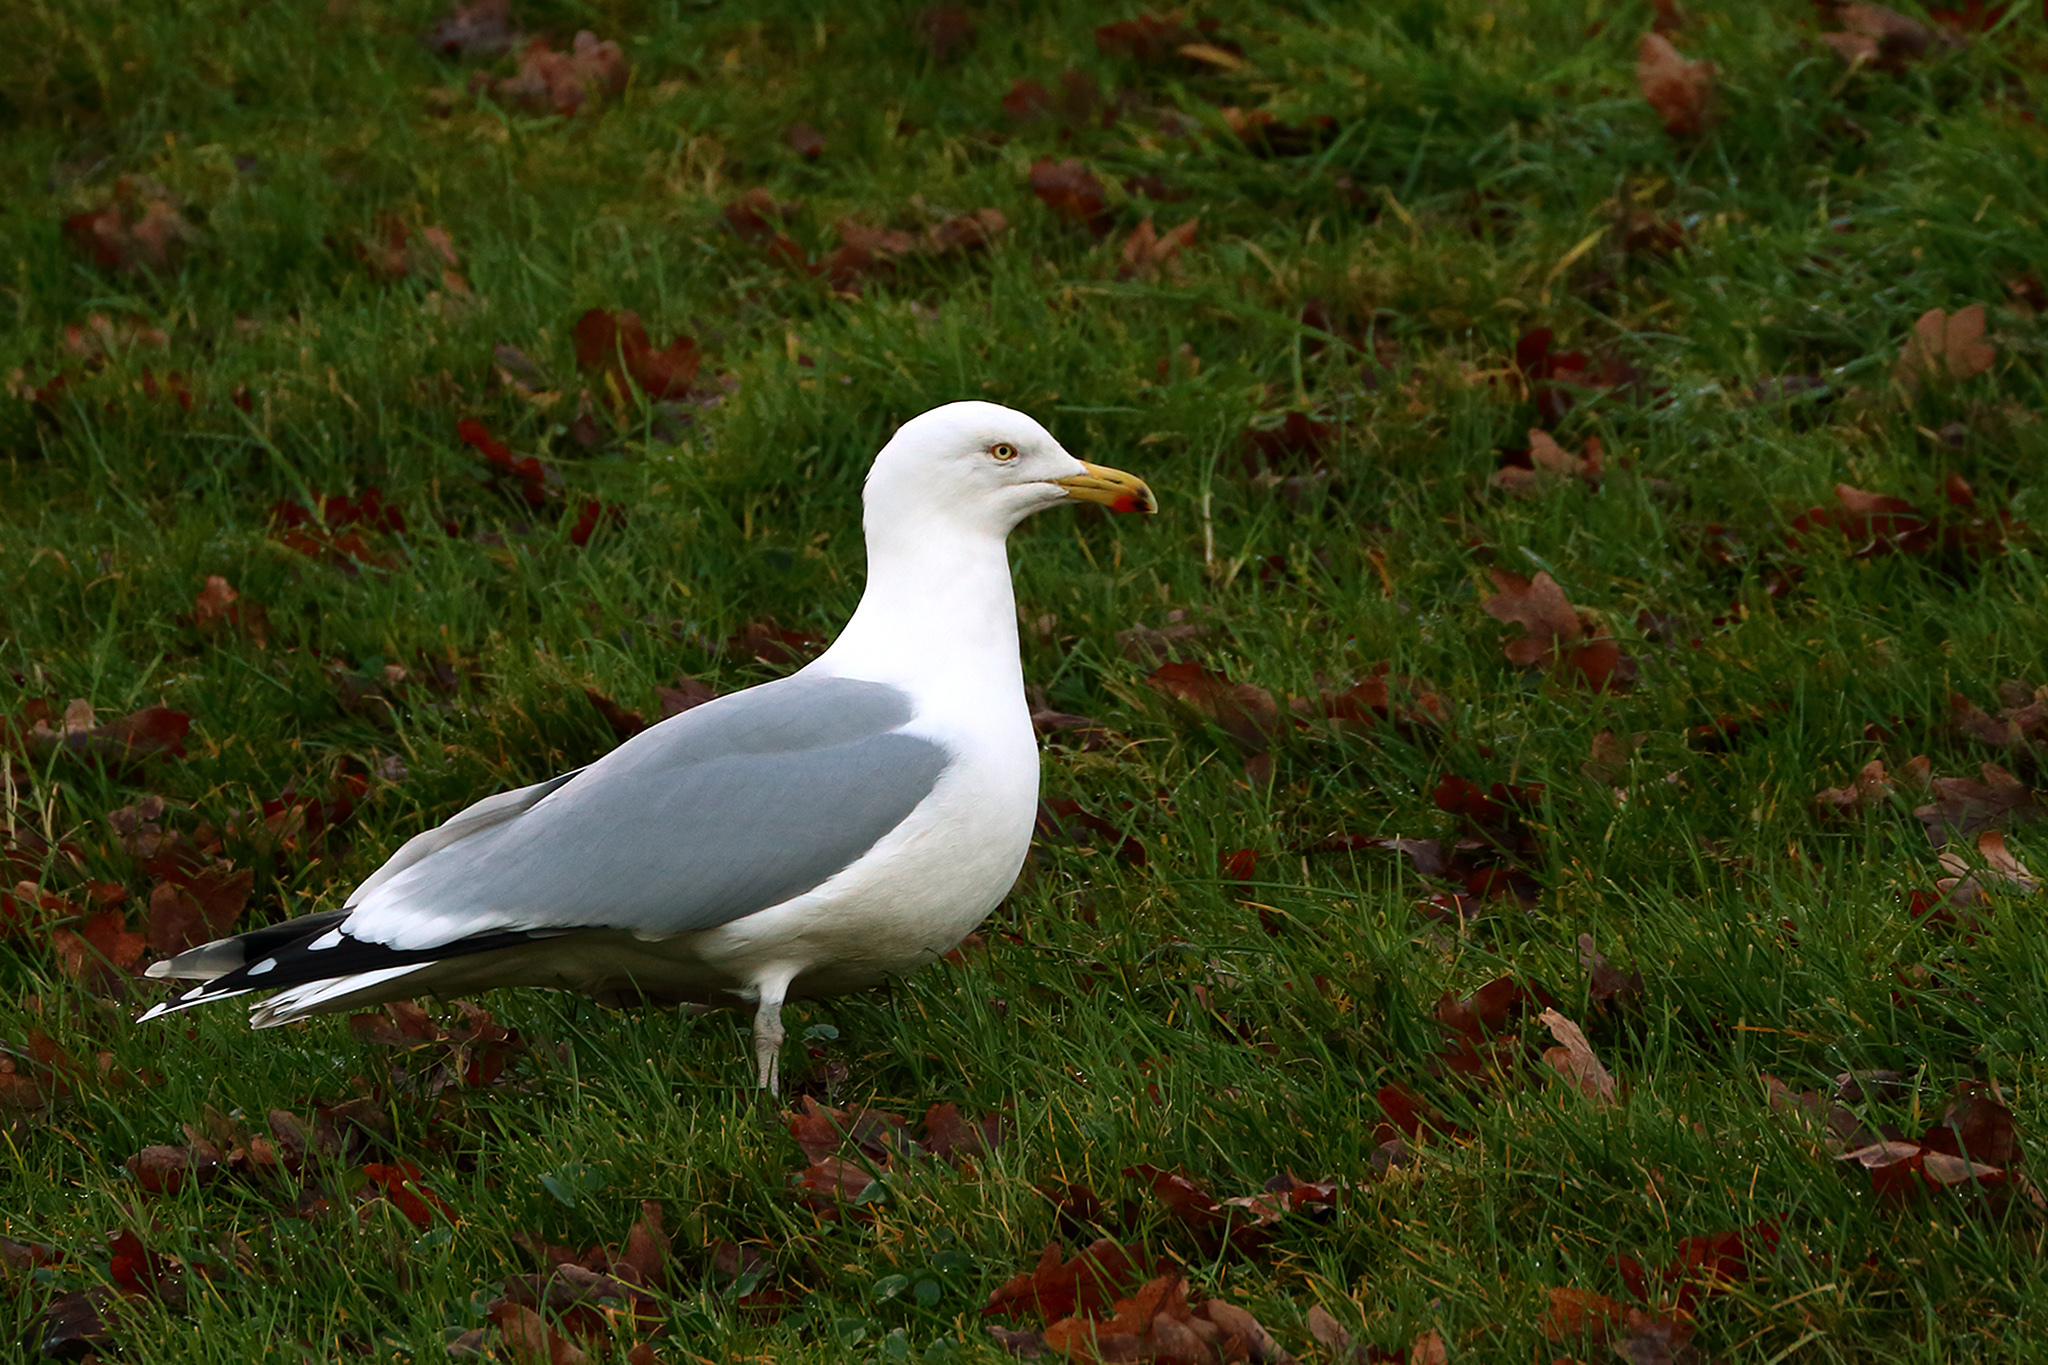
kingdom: Animalia
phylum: Chordata
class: Aves
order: Charadriiformes
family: Laridae
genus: Larus
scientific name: Larus argentatus
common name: Herring gull
